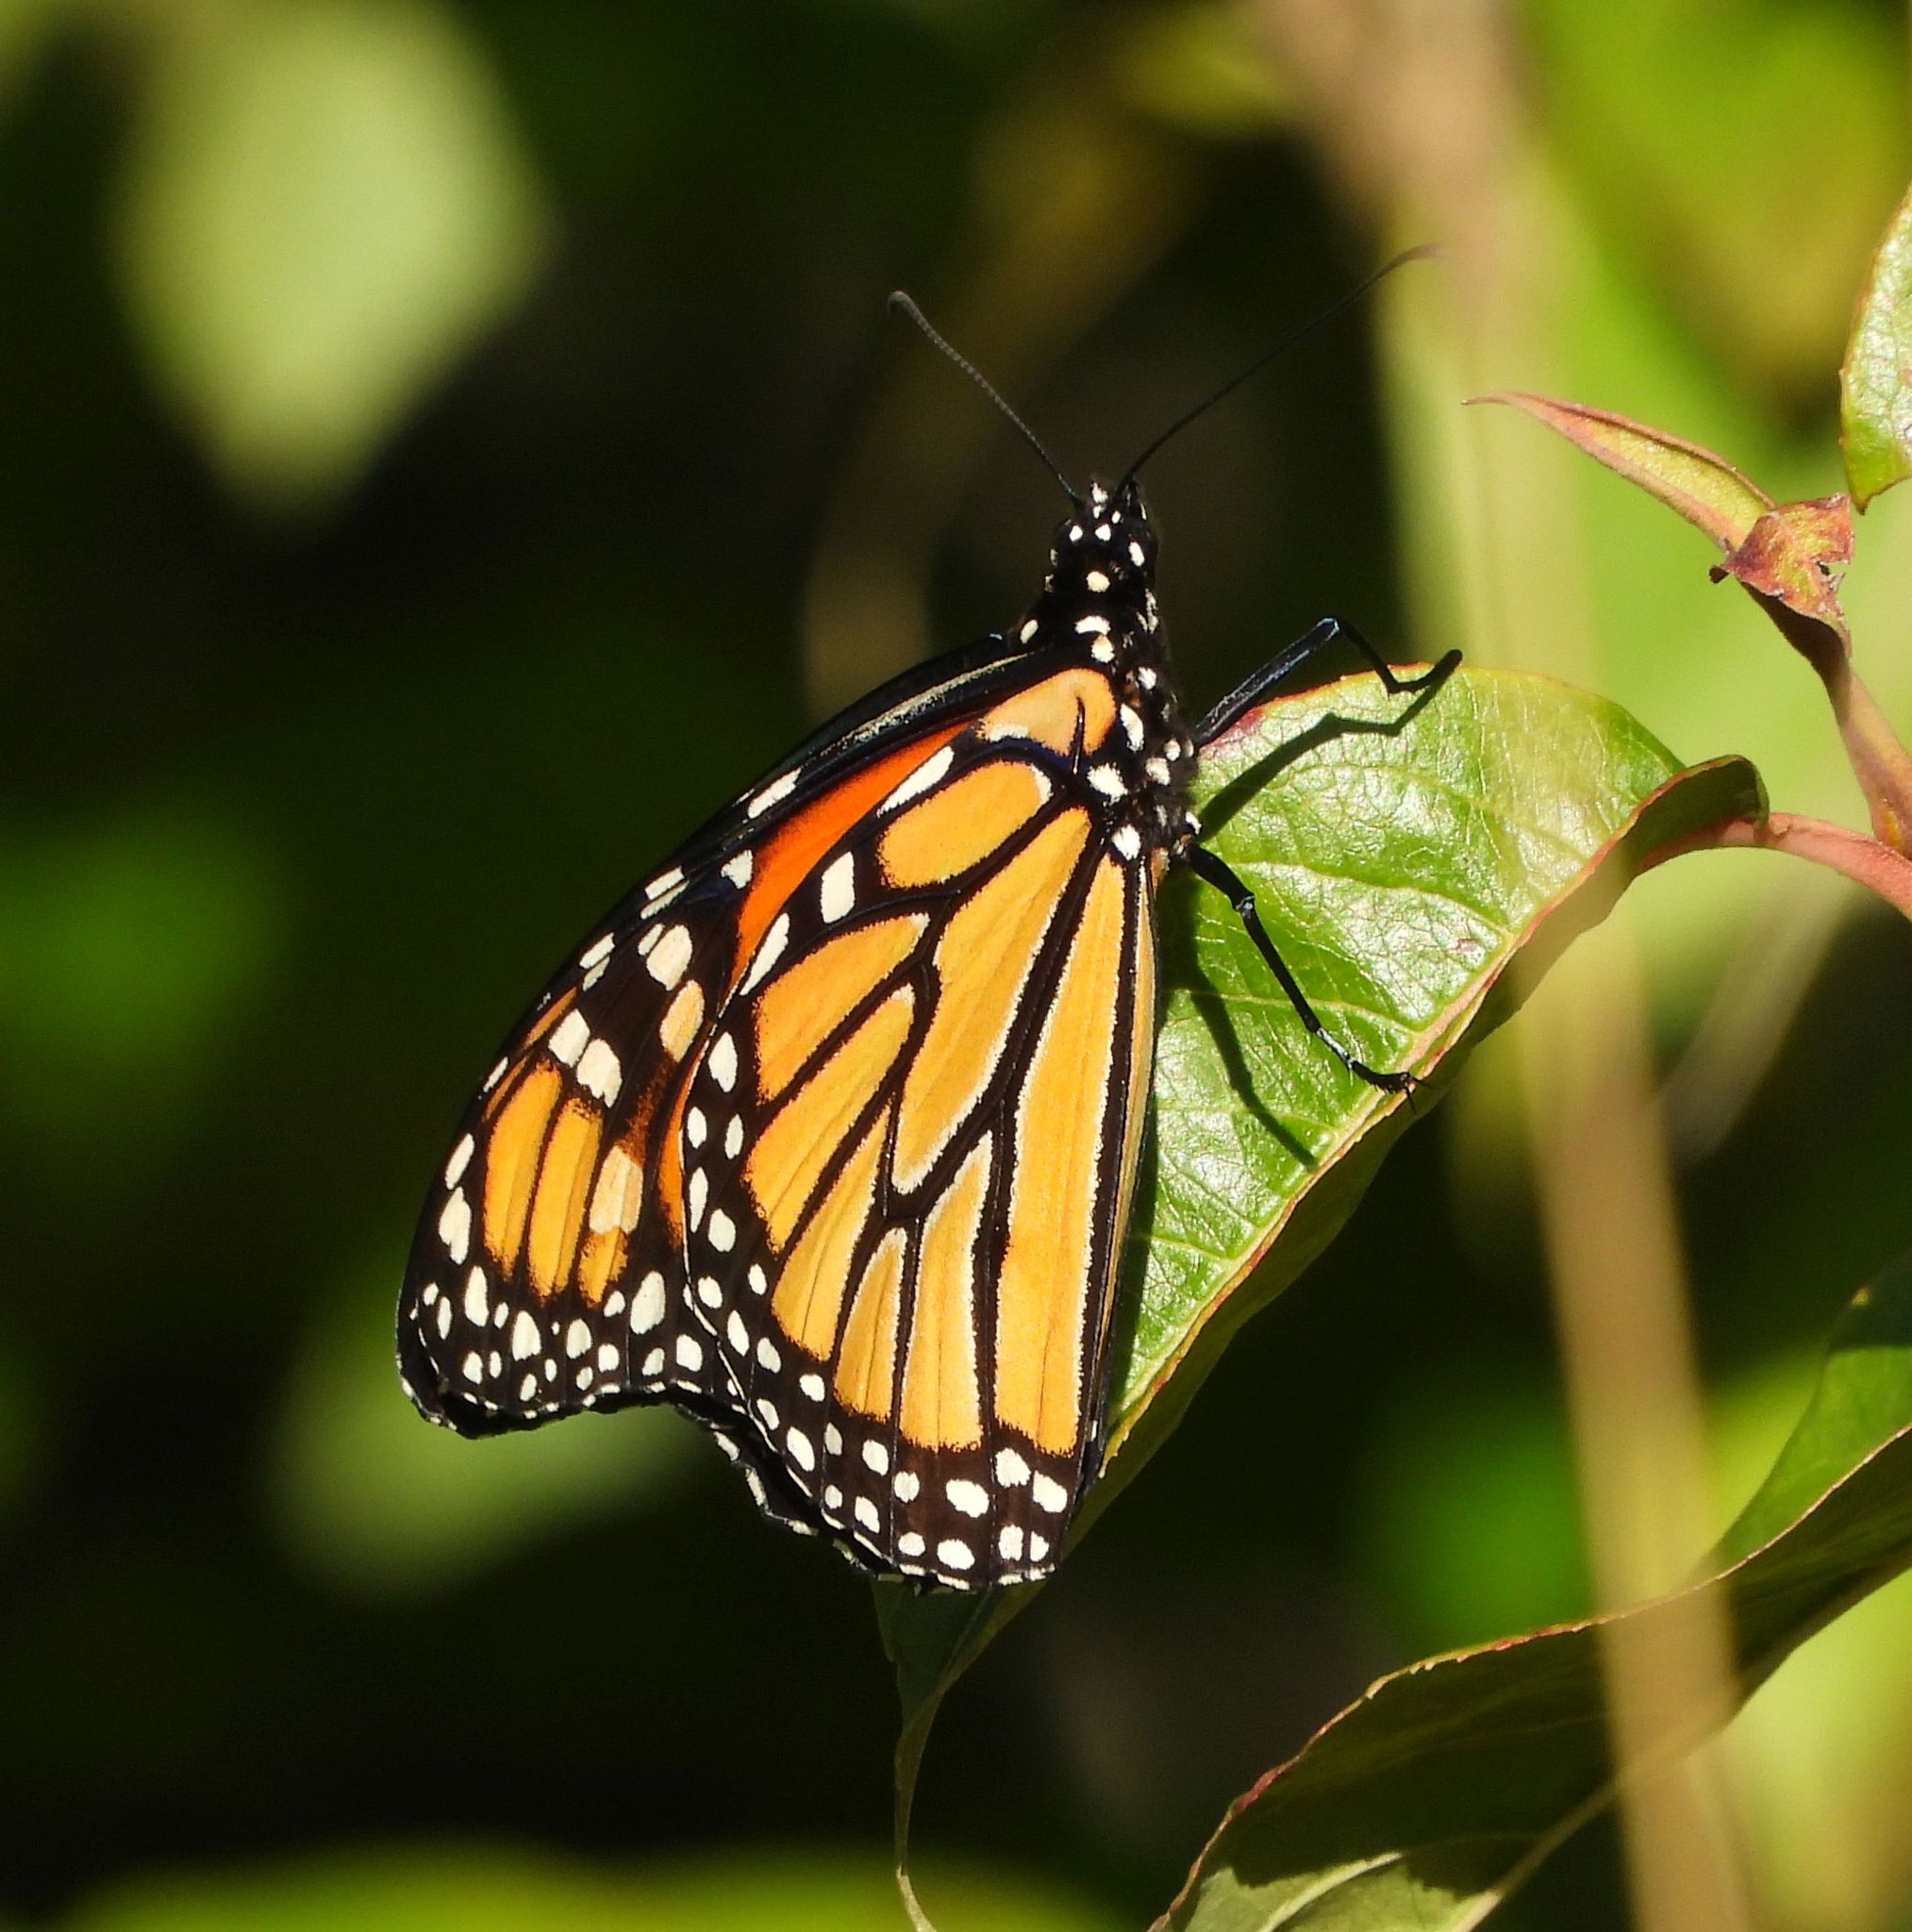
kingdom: Animalia
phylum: Arthropoda
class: Insecta
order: Lepidoptera
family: Nymphalidae
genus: Danaus
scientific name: Danaus plexippus
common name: Monarch
